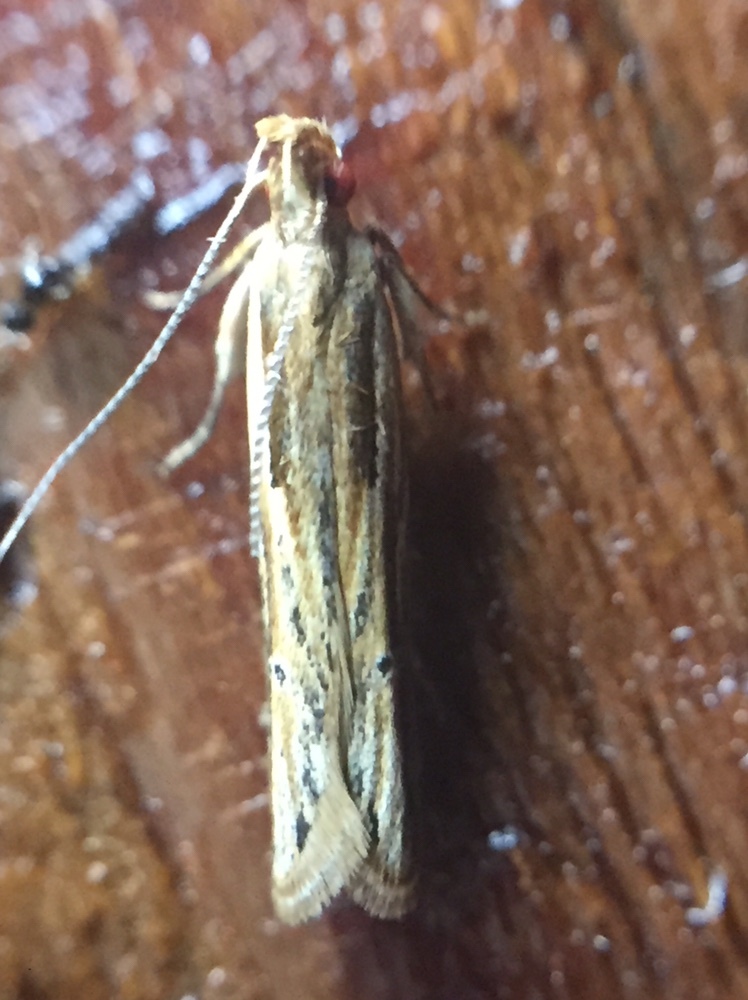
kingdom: Animalia
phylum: Arthropoda
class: Insecta
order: Lepidoptera
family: Depressariidae
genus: Eutorna
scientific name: Eutorna symmorpha
